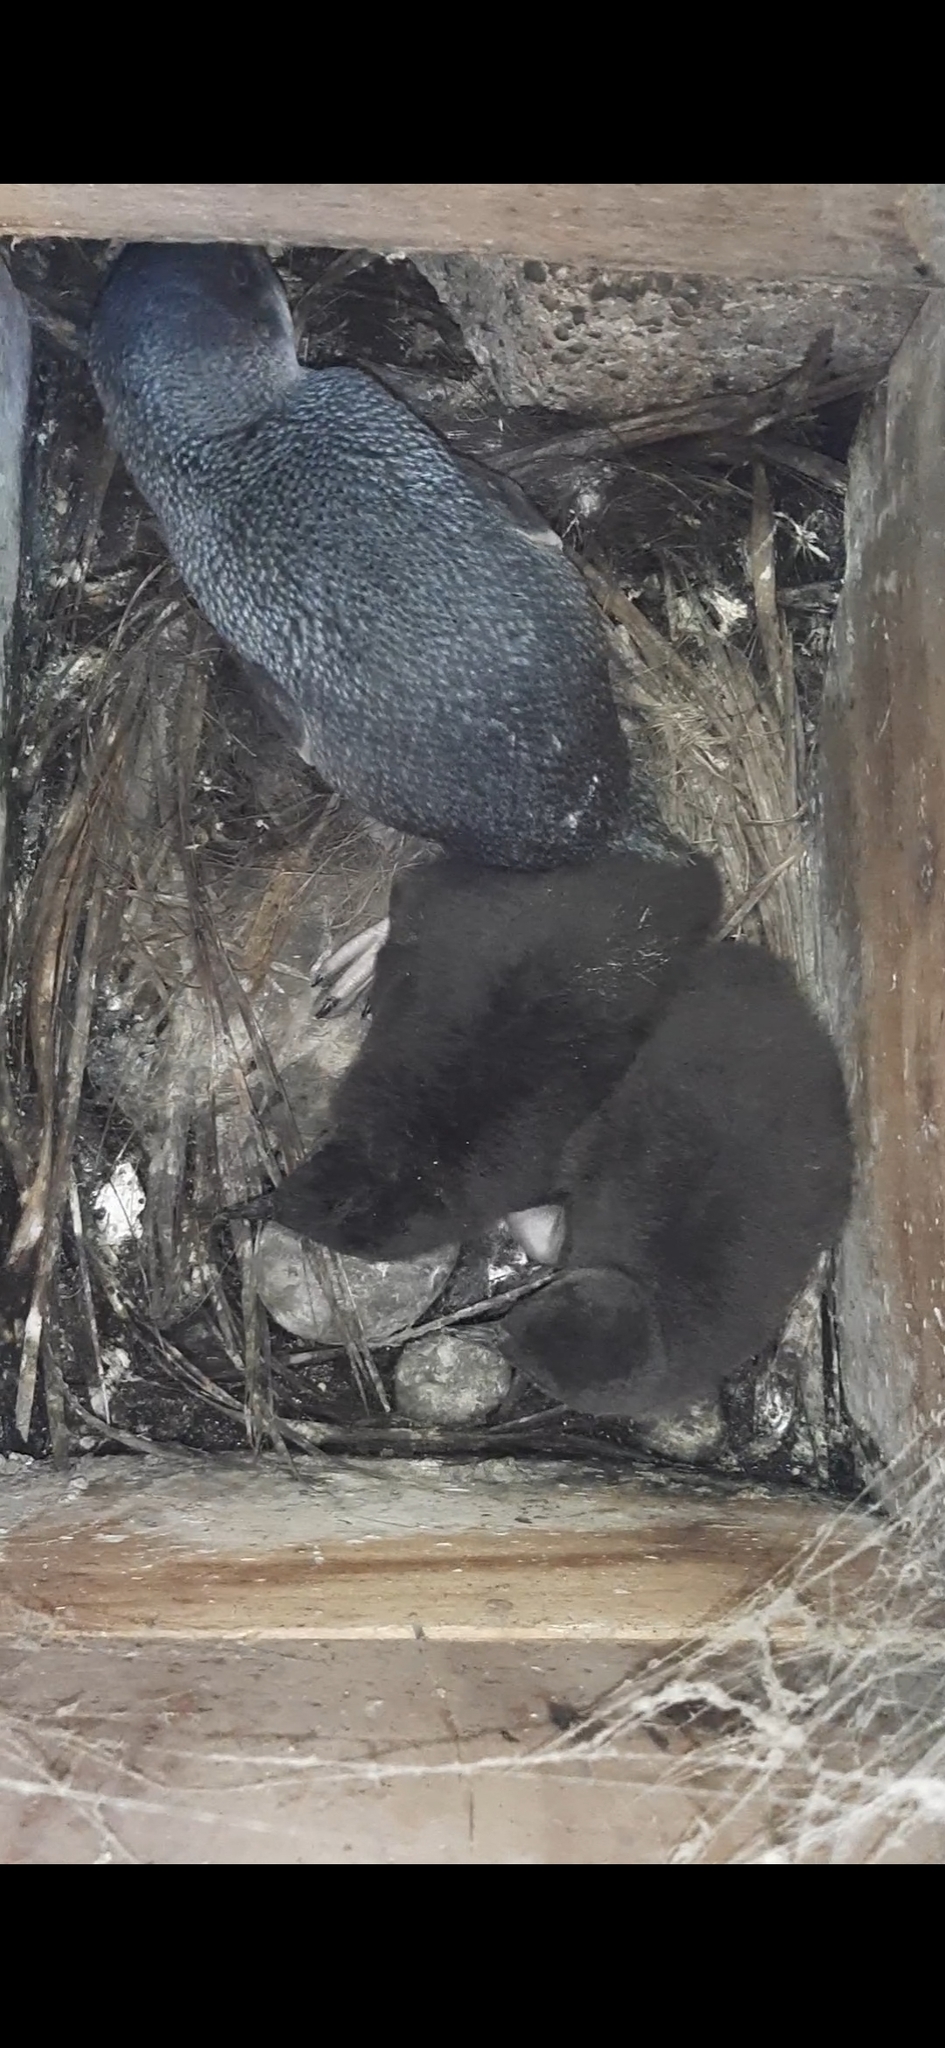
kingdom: Animalia
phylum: Chordata
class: Aves
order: Sphenisciformes
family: Spheniscidae
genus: Eudyptula
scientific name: Eudyptula minor
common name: Little penguin
